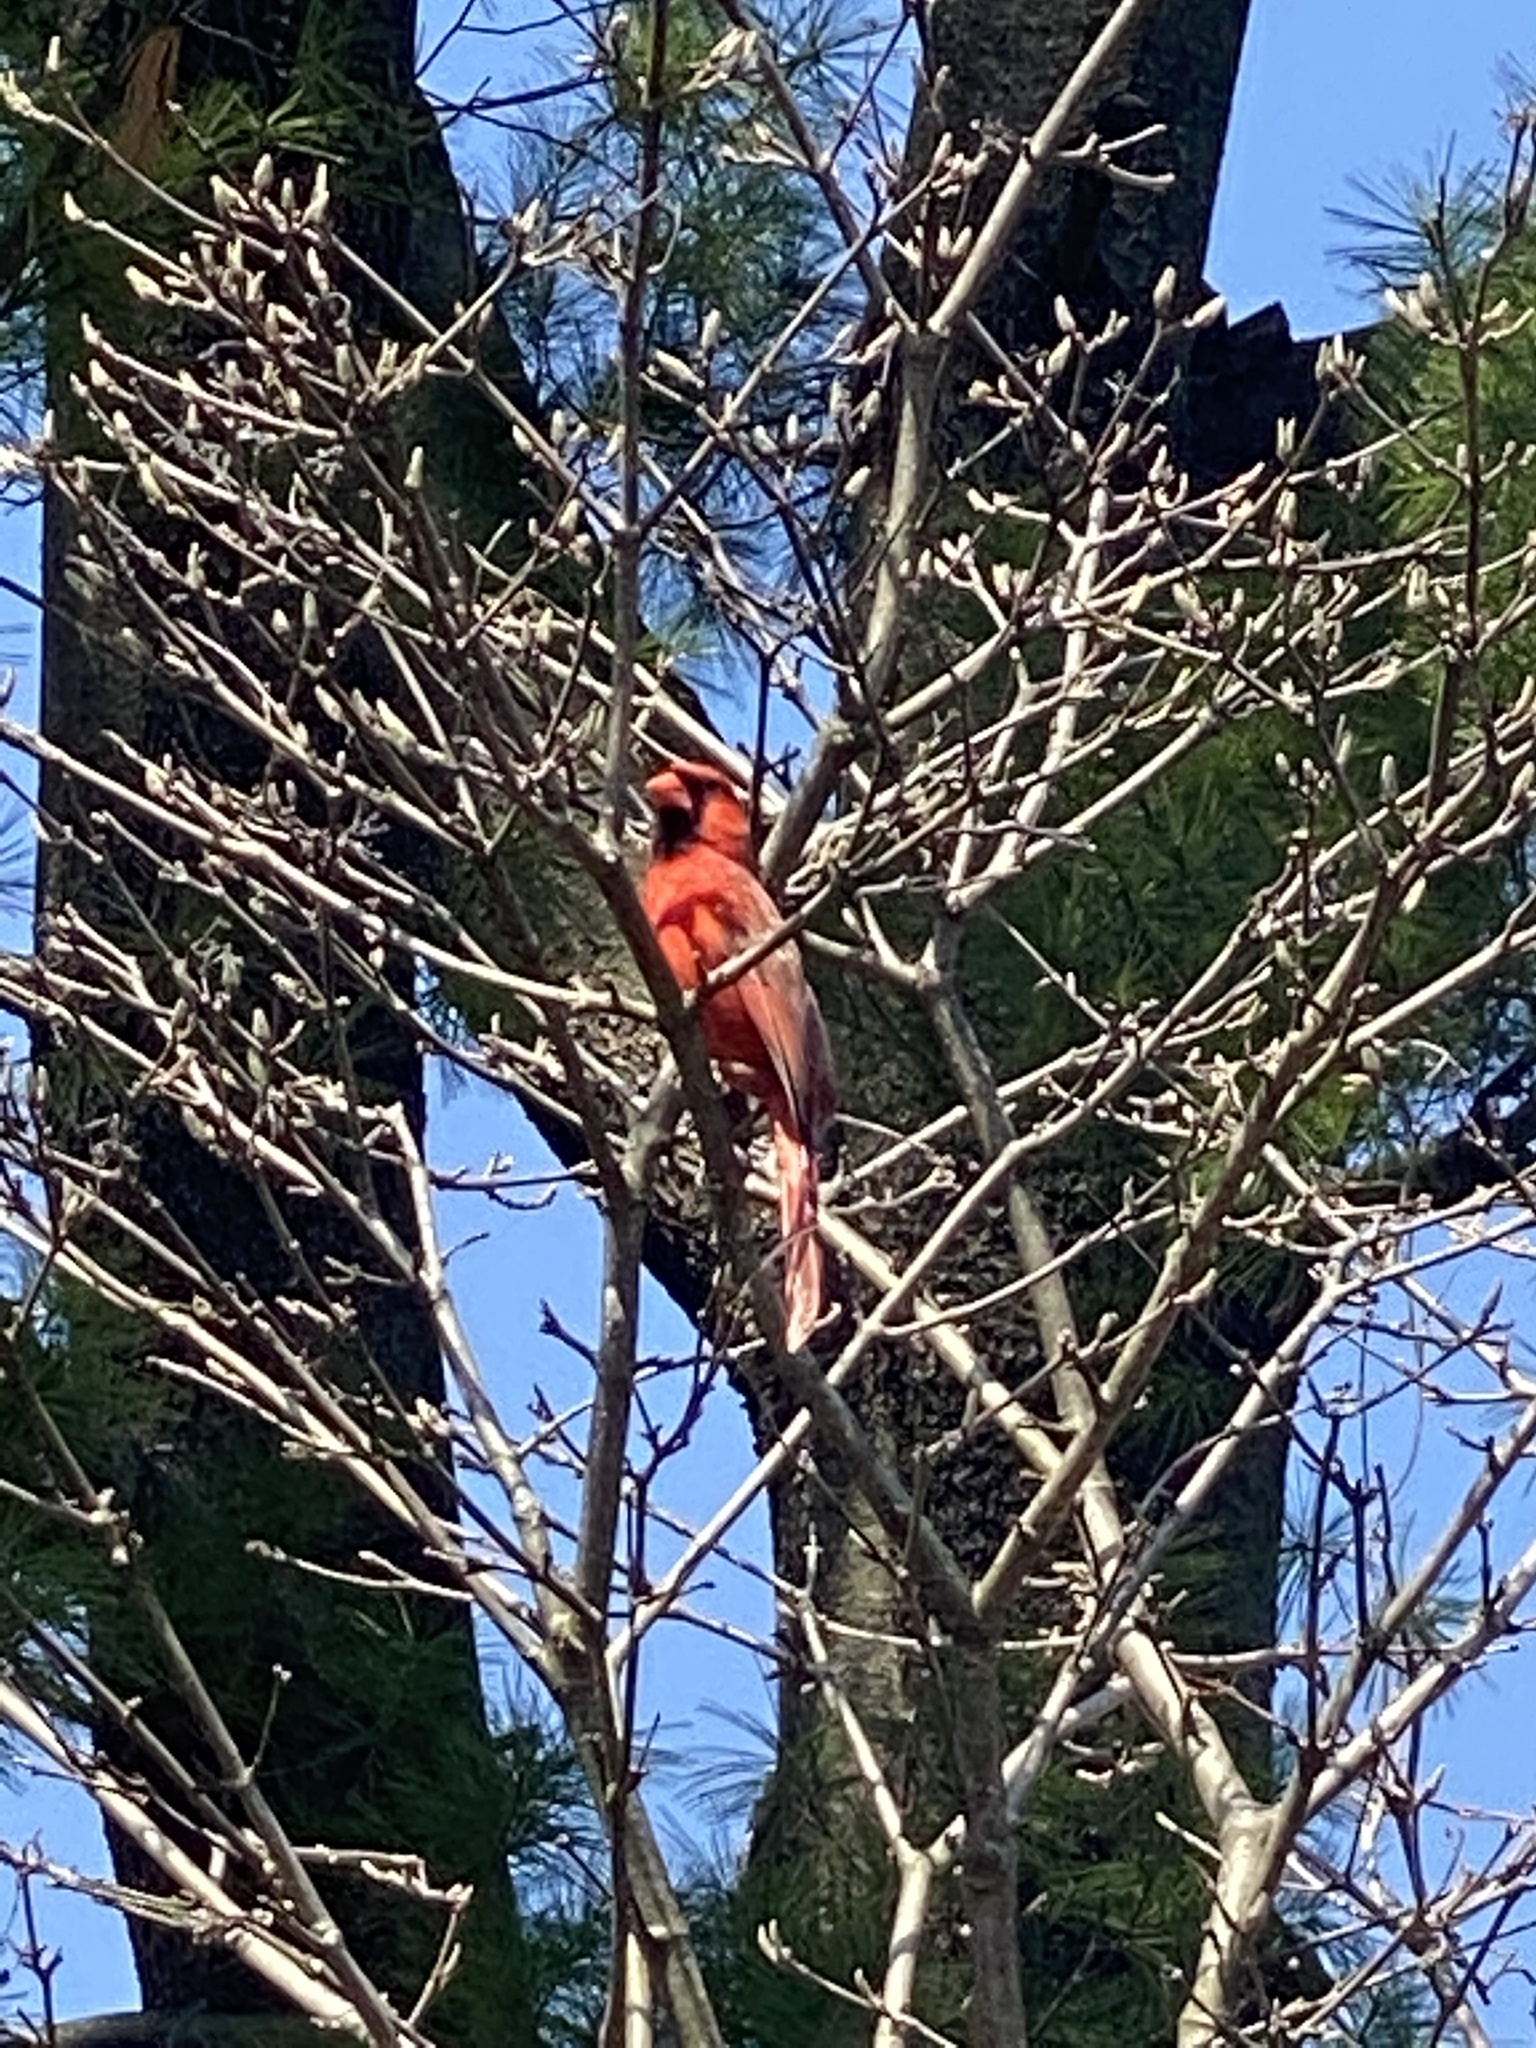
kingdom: Animalia
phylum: Chordata
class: Aves
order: Passeriformes
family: Cardinalidae
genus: Cardinalis
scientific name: Cardinalis cardinalis
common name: Northern cardinal
